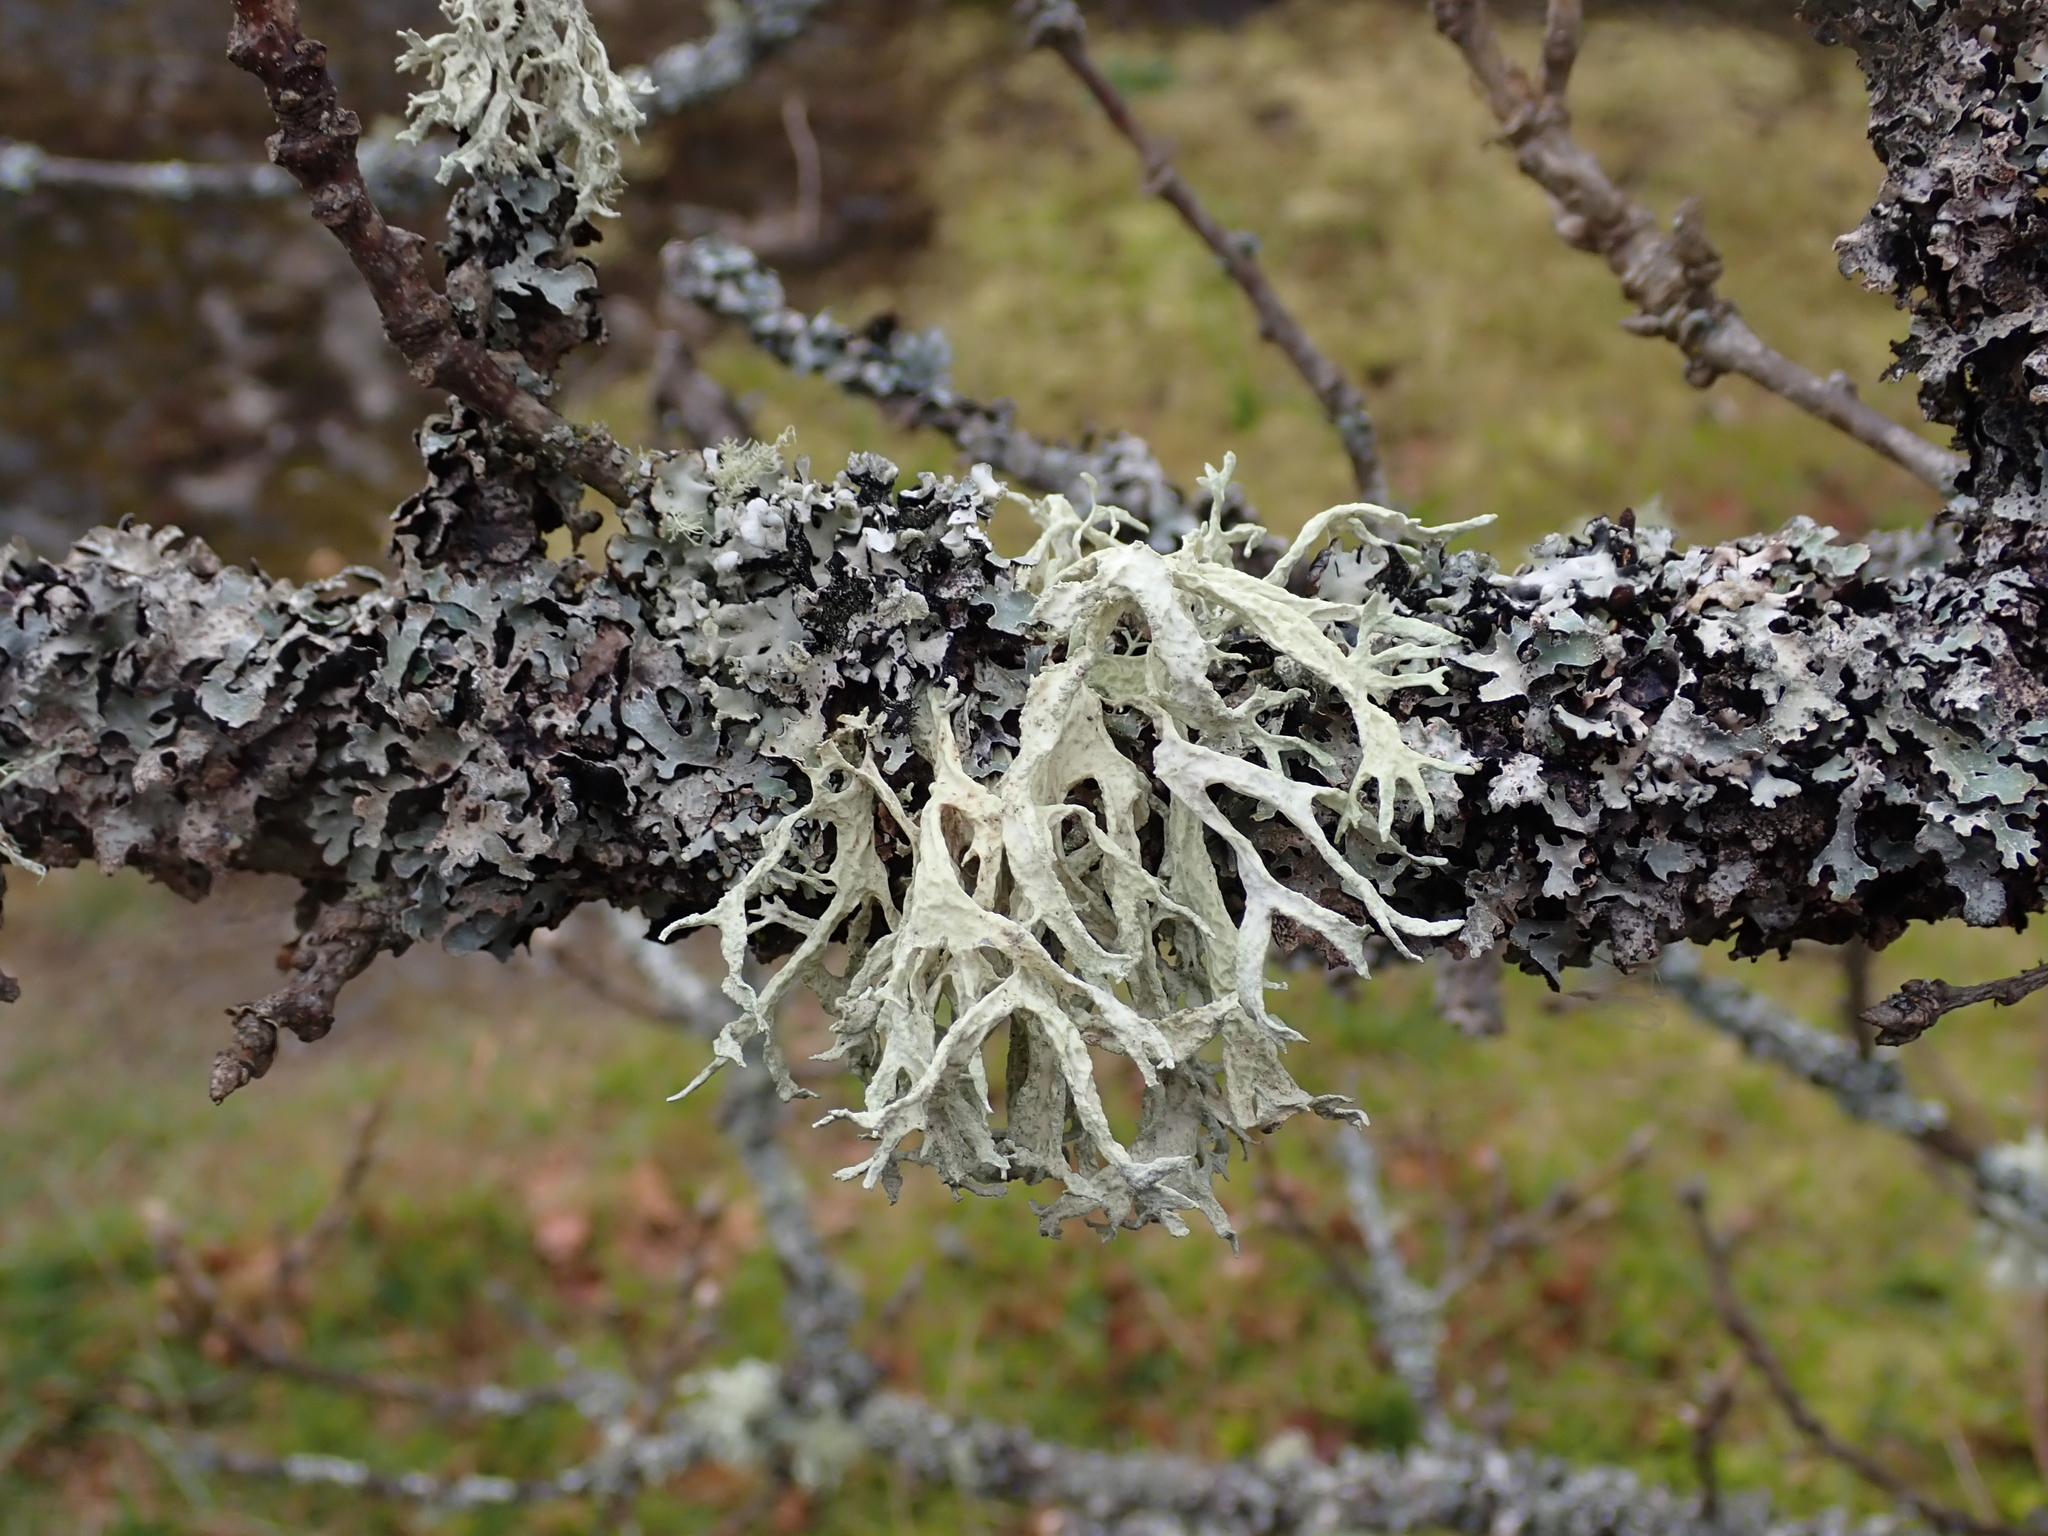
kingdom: Fungi
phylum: Ascomycota
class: Lecanoromycetes
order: Lecanorales
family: Parmeliaceae
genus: Evernia
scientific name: Evernia prunastri
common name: Oak moss
